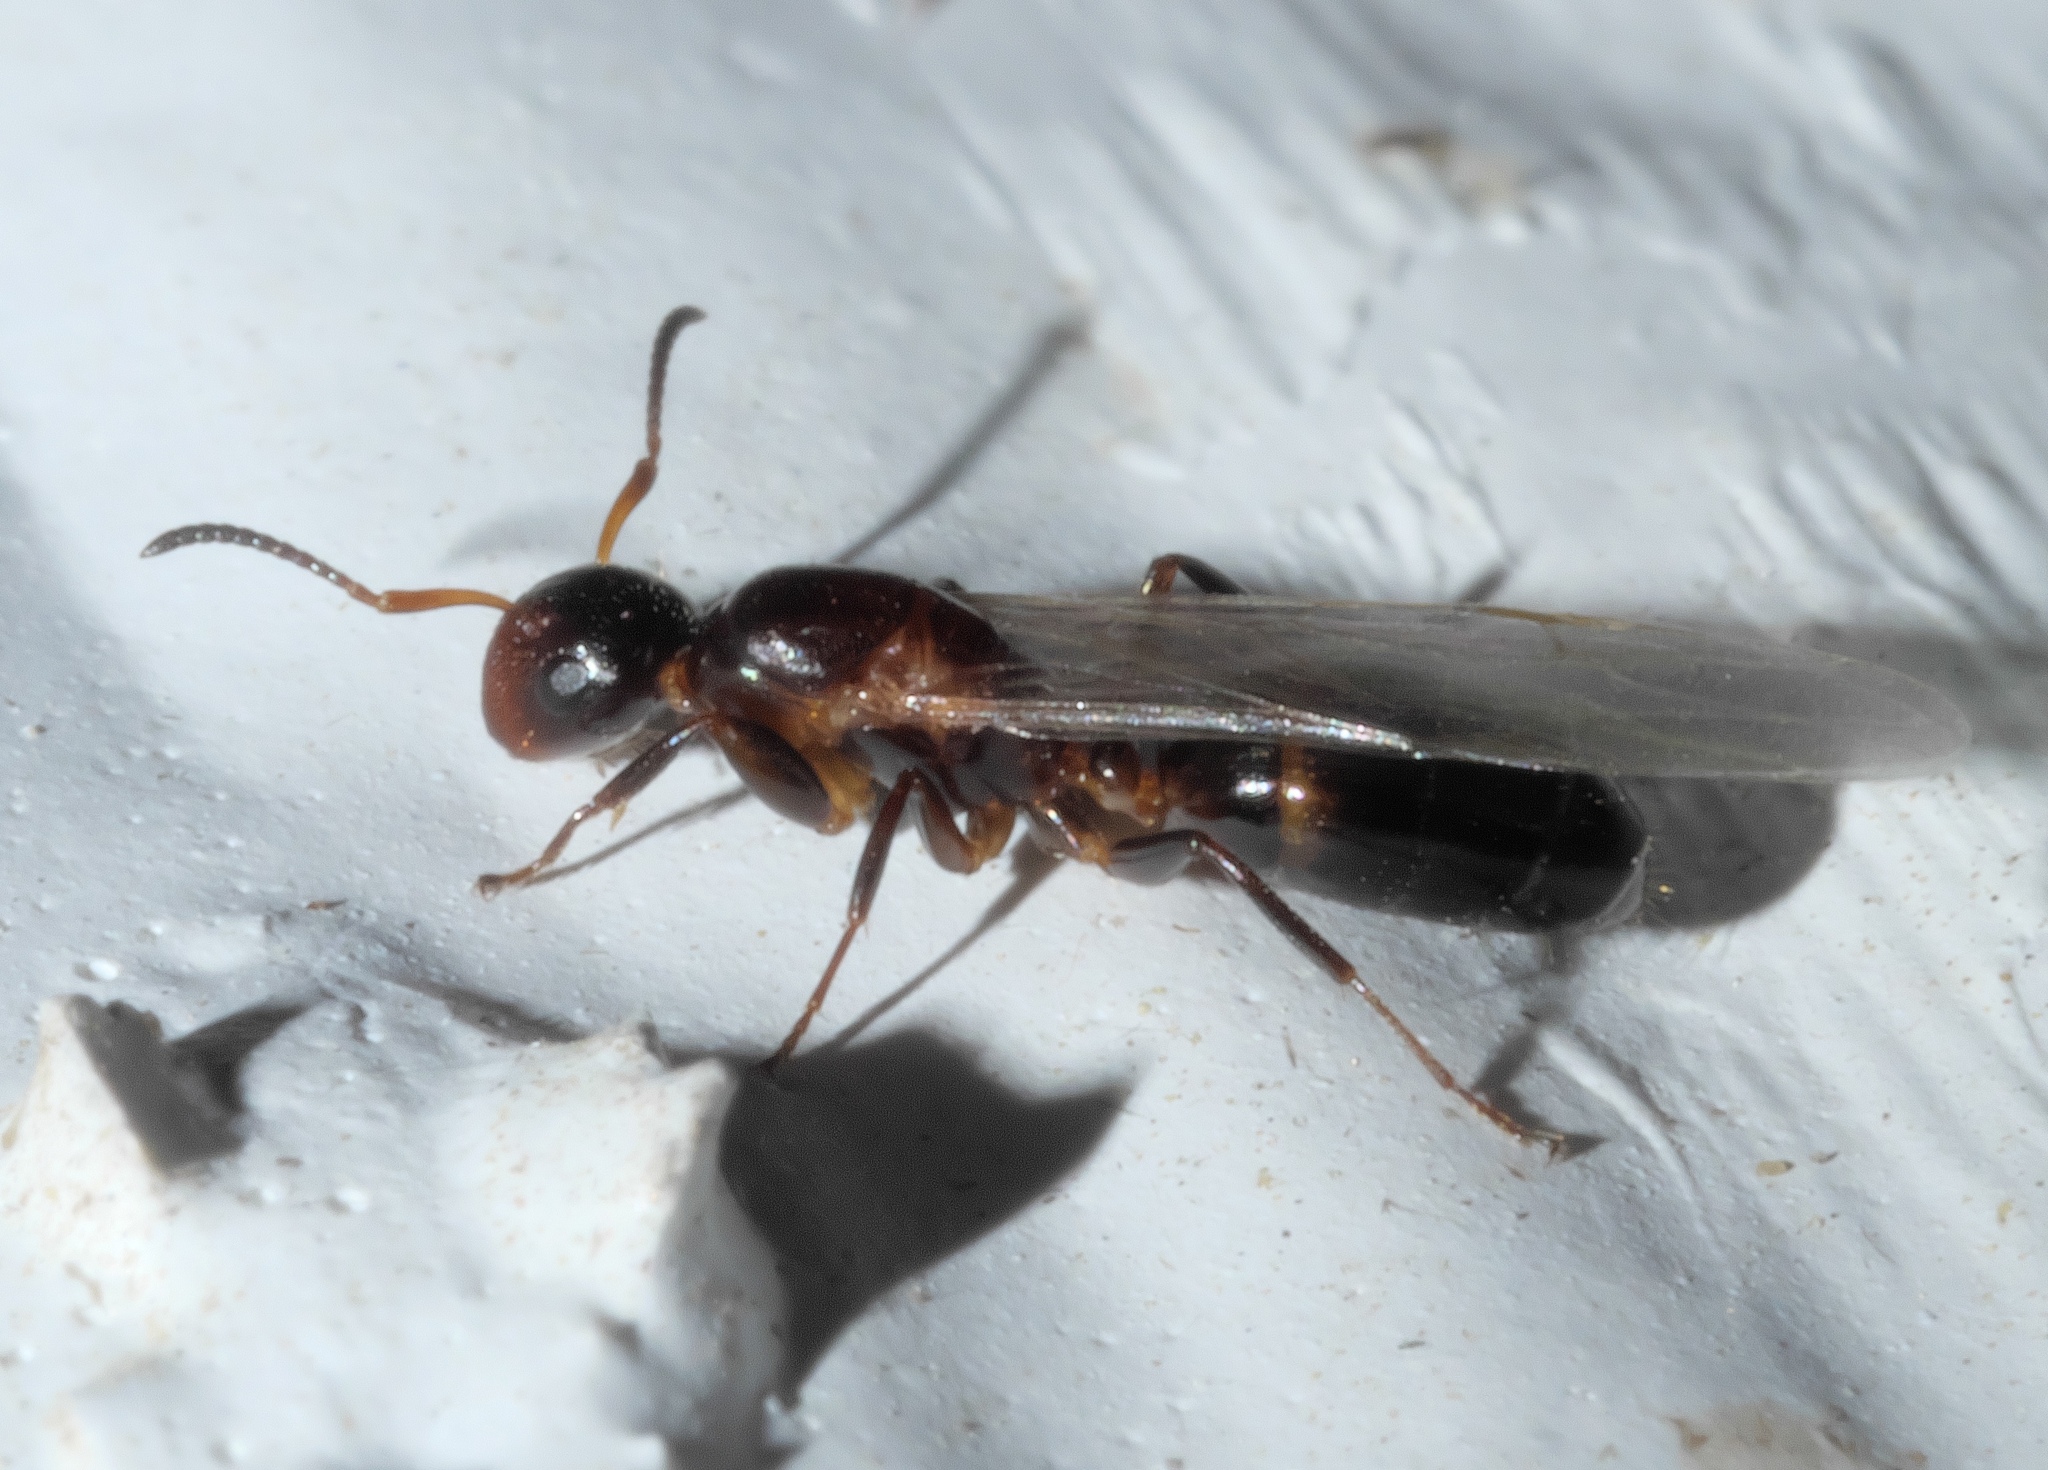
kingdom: Animalia
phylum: Arthropoda
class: Insecta
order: Hymenoptera
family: Formicidae
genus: Colobopsis
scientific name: Colobopsis
